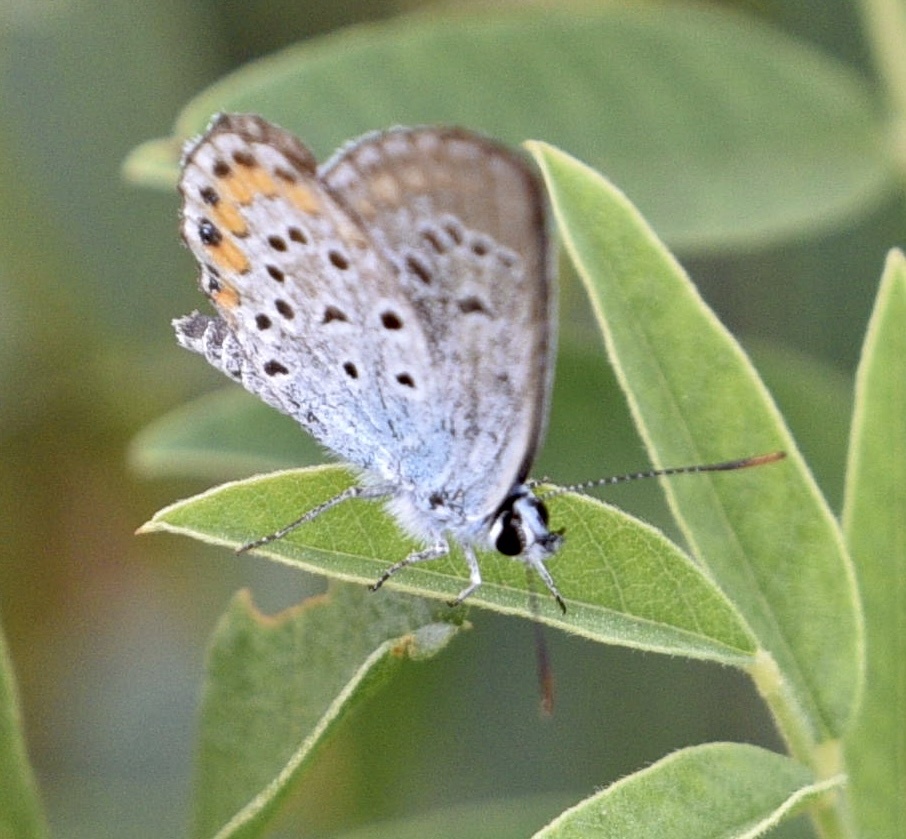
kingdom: Animalia
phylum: Arthropoda
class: Insecta
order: Lepidoptera
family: Lycaenidae
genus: Plebejus
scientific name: Plebejus argus
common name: Silver-studded blue
